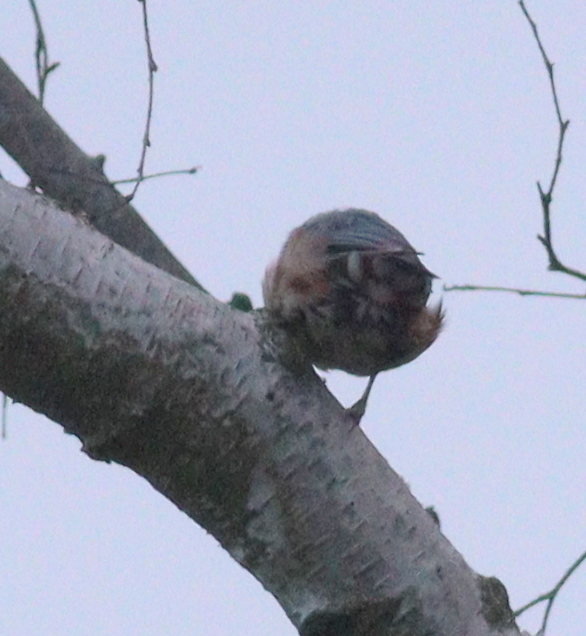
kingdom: Animalia
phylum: Chordata
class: Aves
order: Passeriformes
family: Sittidae
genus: Sitta
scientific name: Sitta europaea
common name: Eurasian nuthatch
